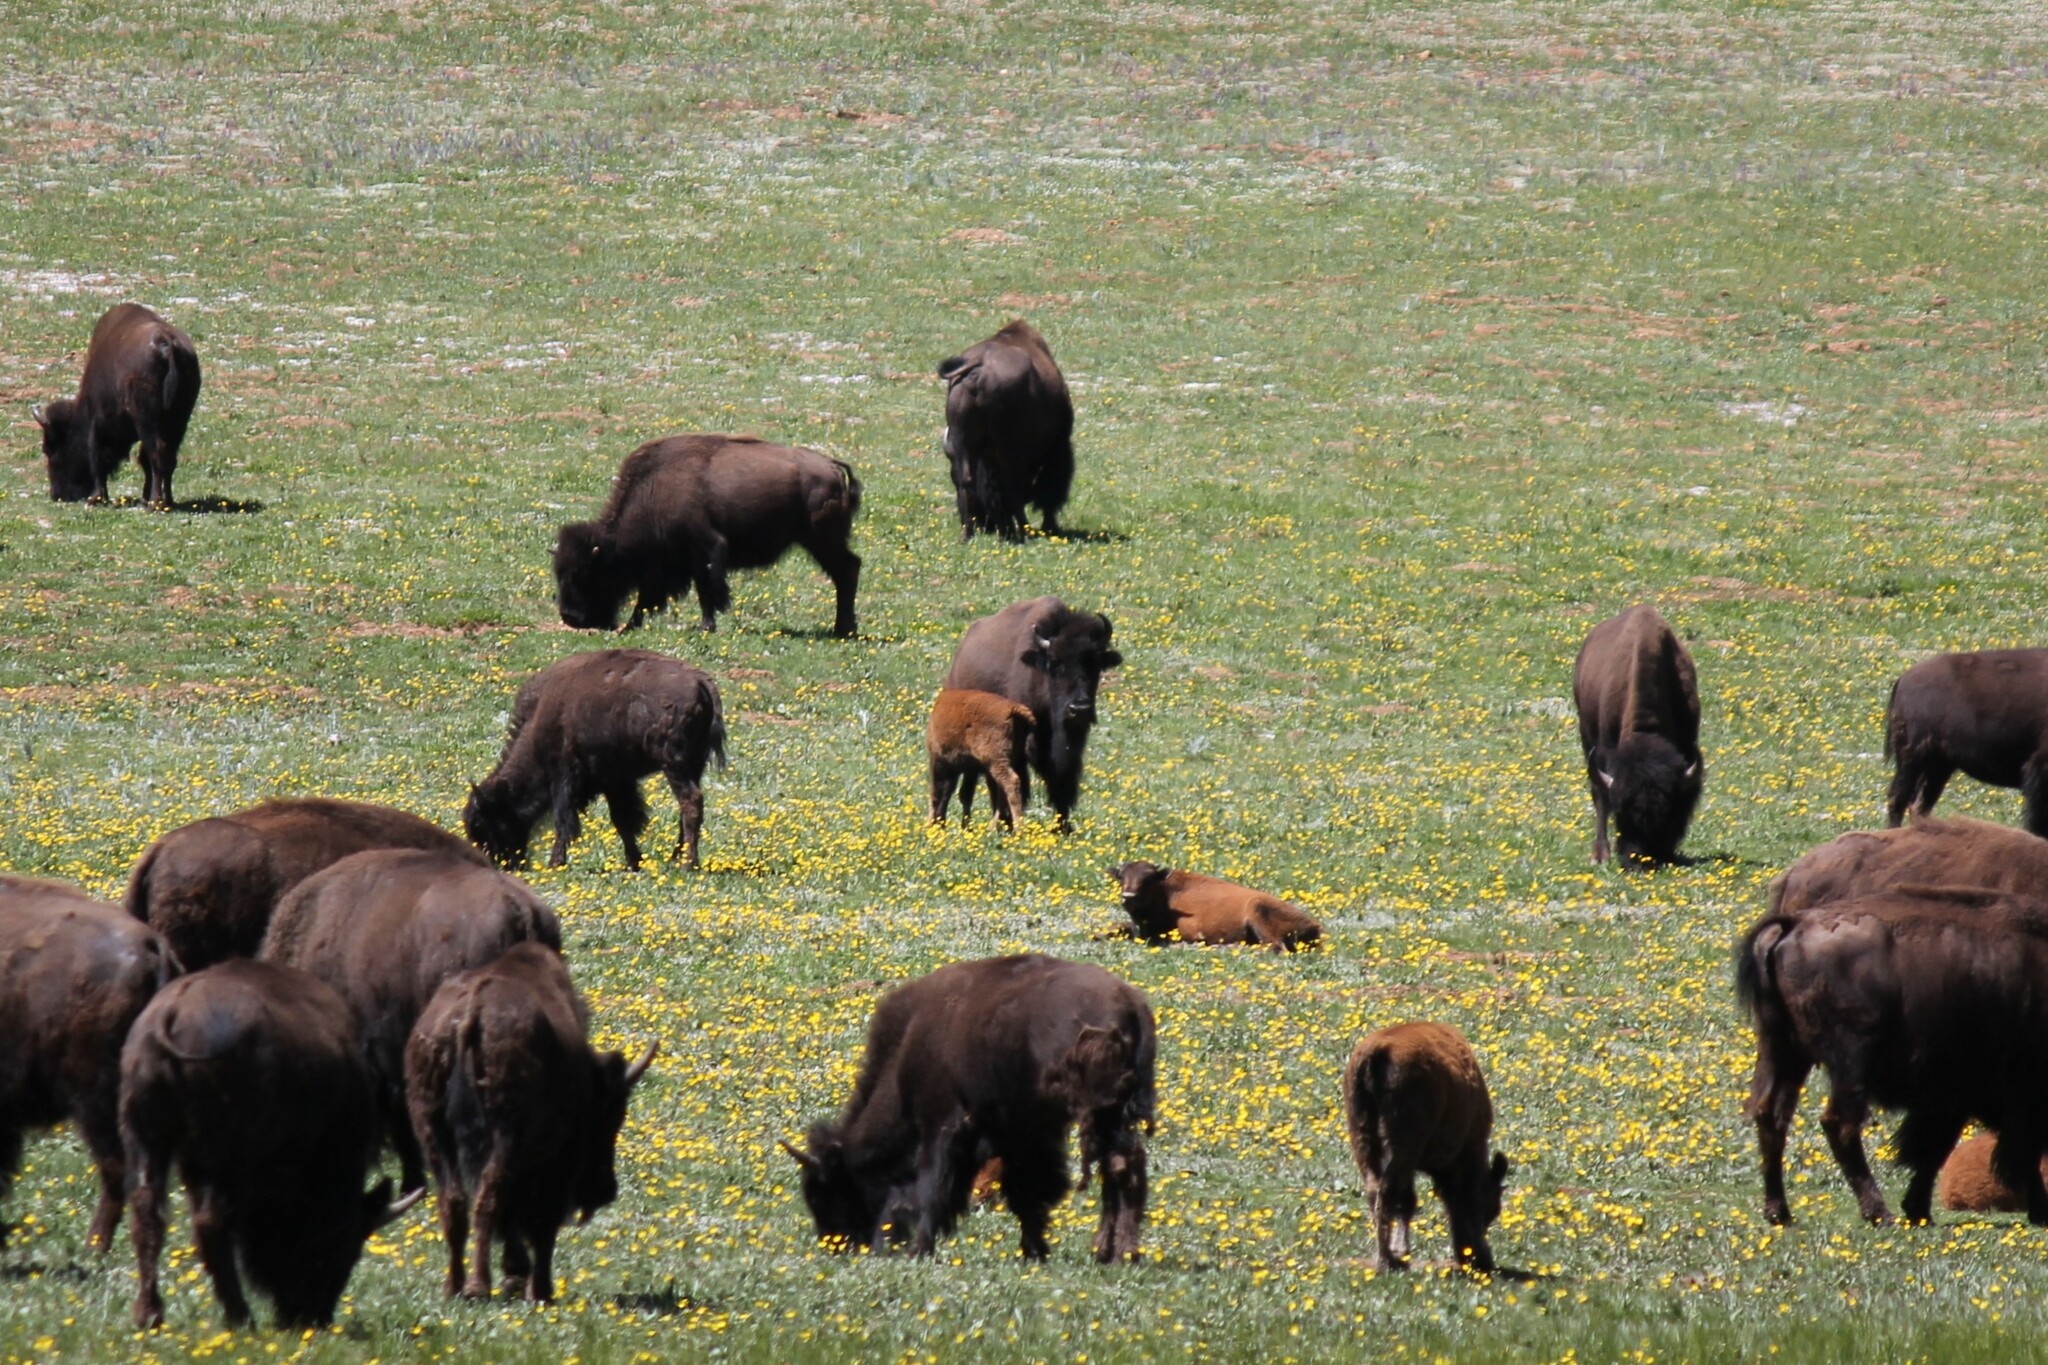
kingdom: Animalia
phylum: Chordata
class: Mammalia
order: Artiodactyla
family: Bovidae
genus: Bison
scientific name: Bison bison
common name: American bison
